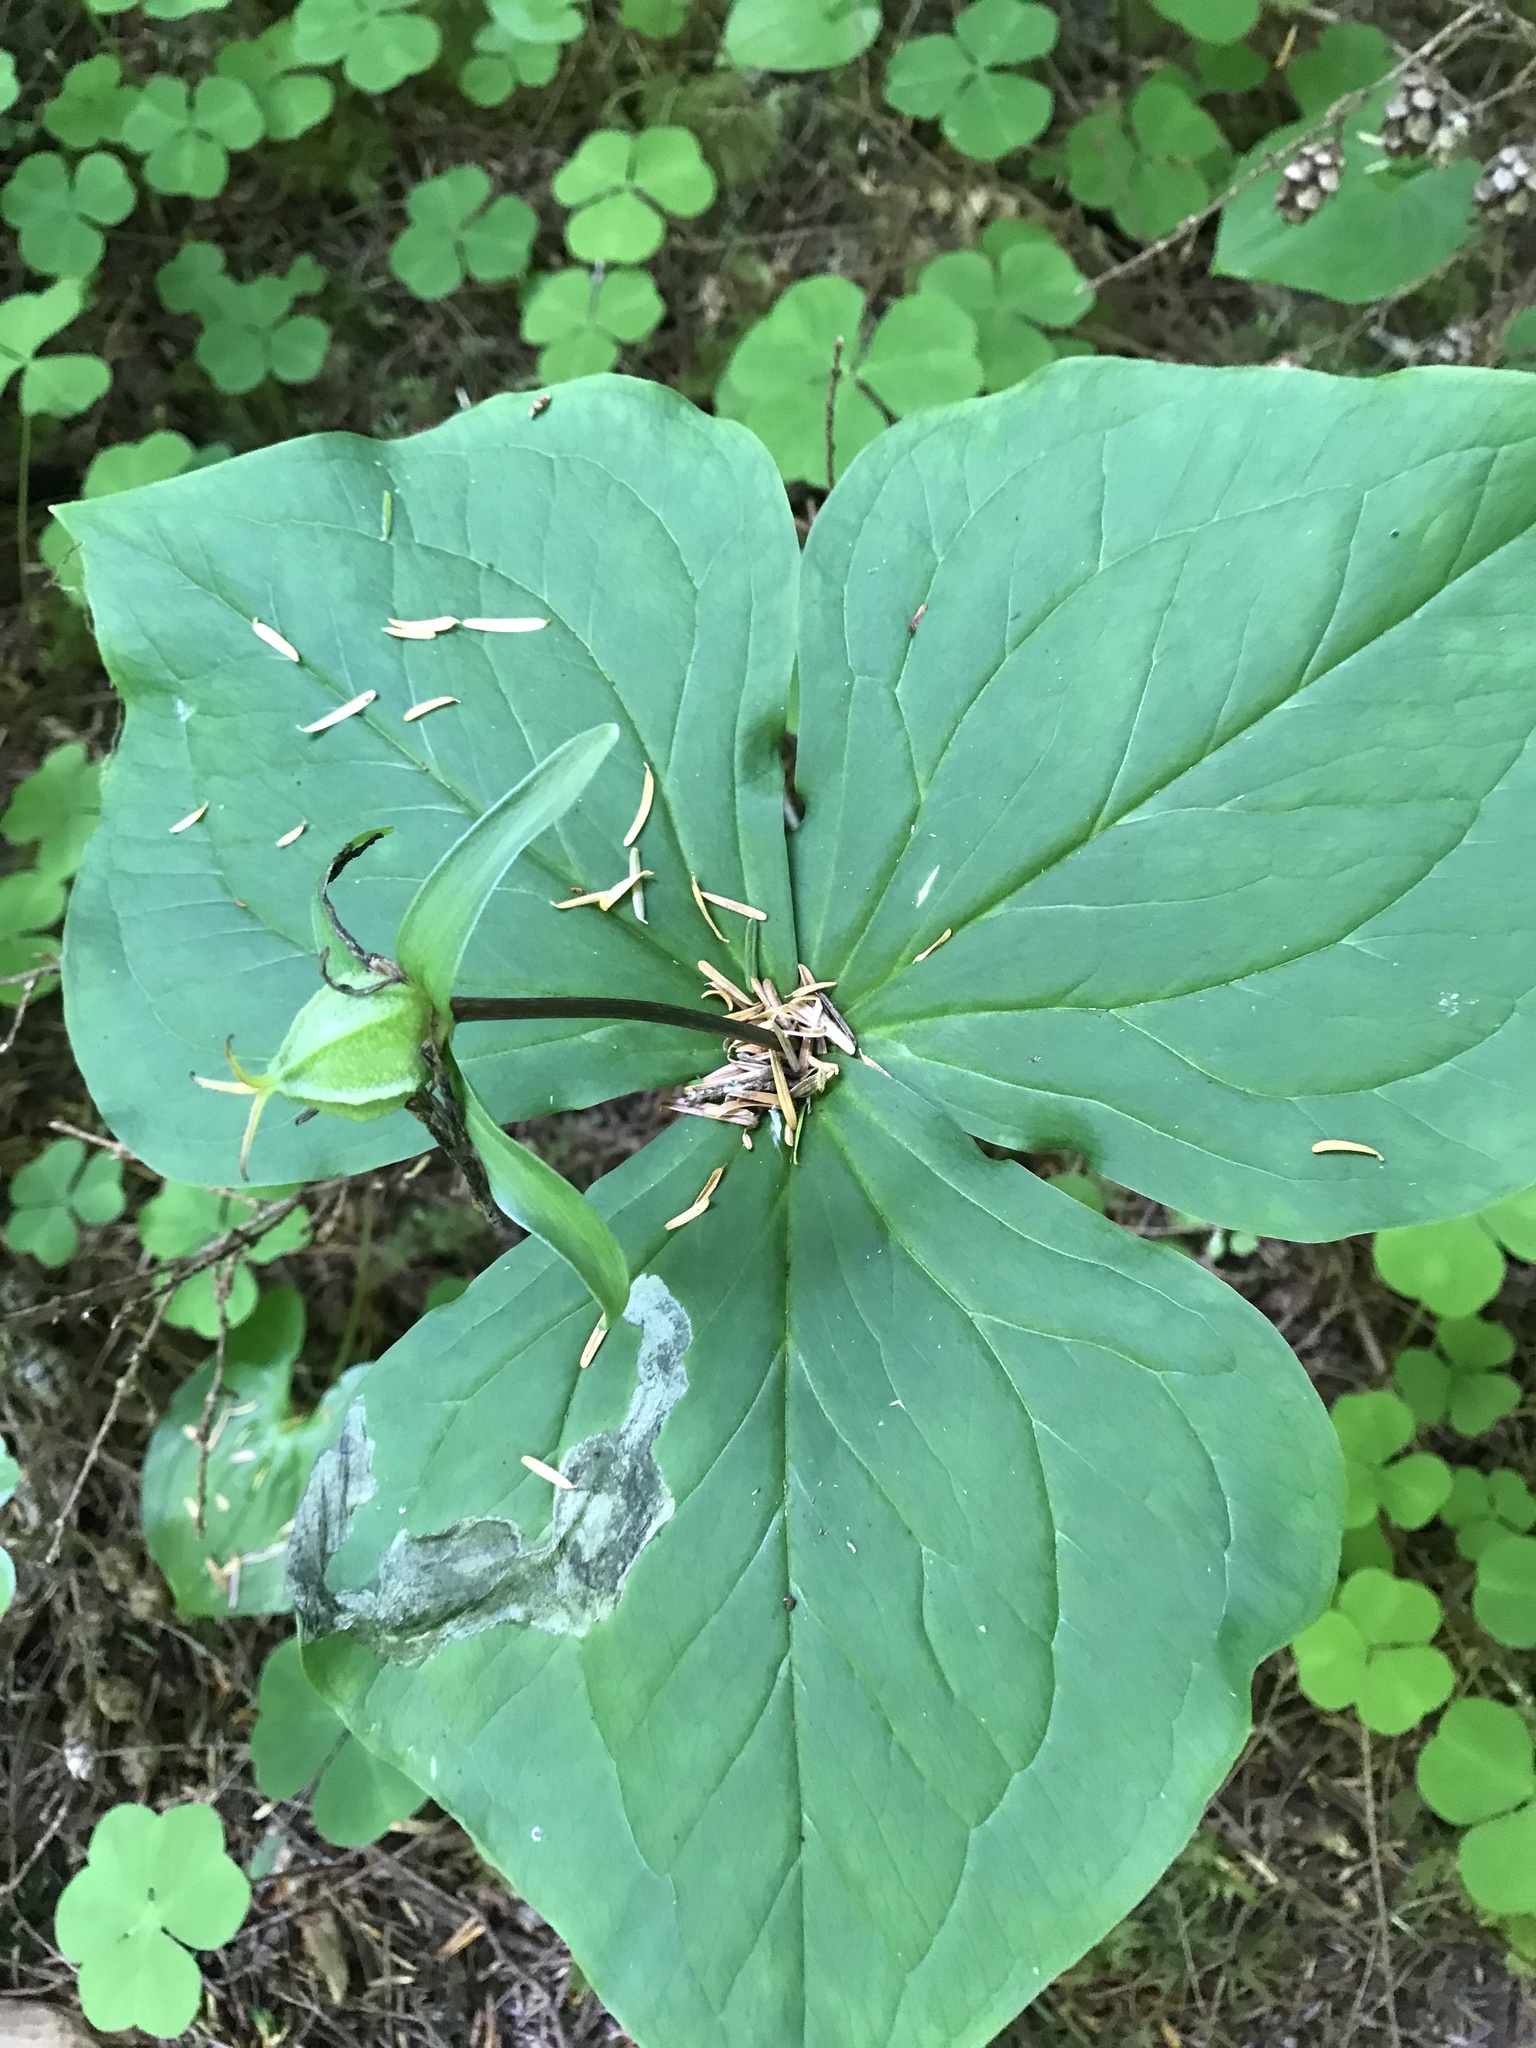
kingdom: Plantae
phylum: Tracheophyta
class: Liliopsida
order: Liliales
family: Melanthiaceae
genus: Trillium
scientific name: Trillium ovatum
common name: Pacific trillium
